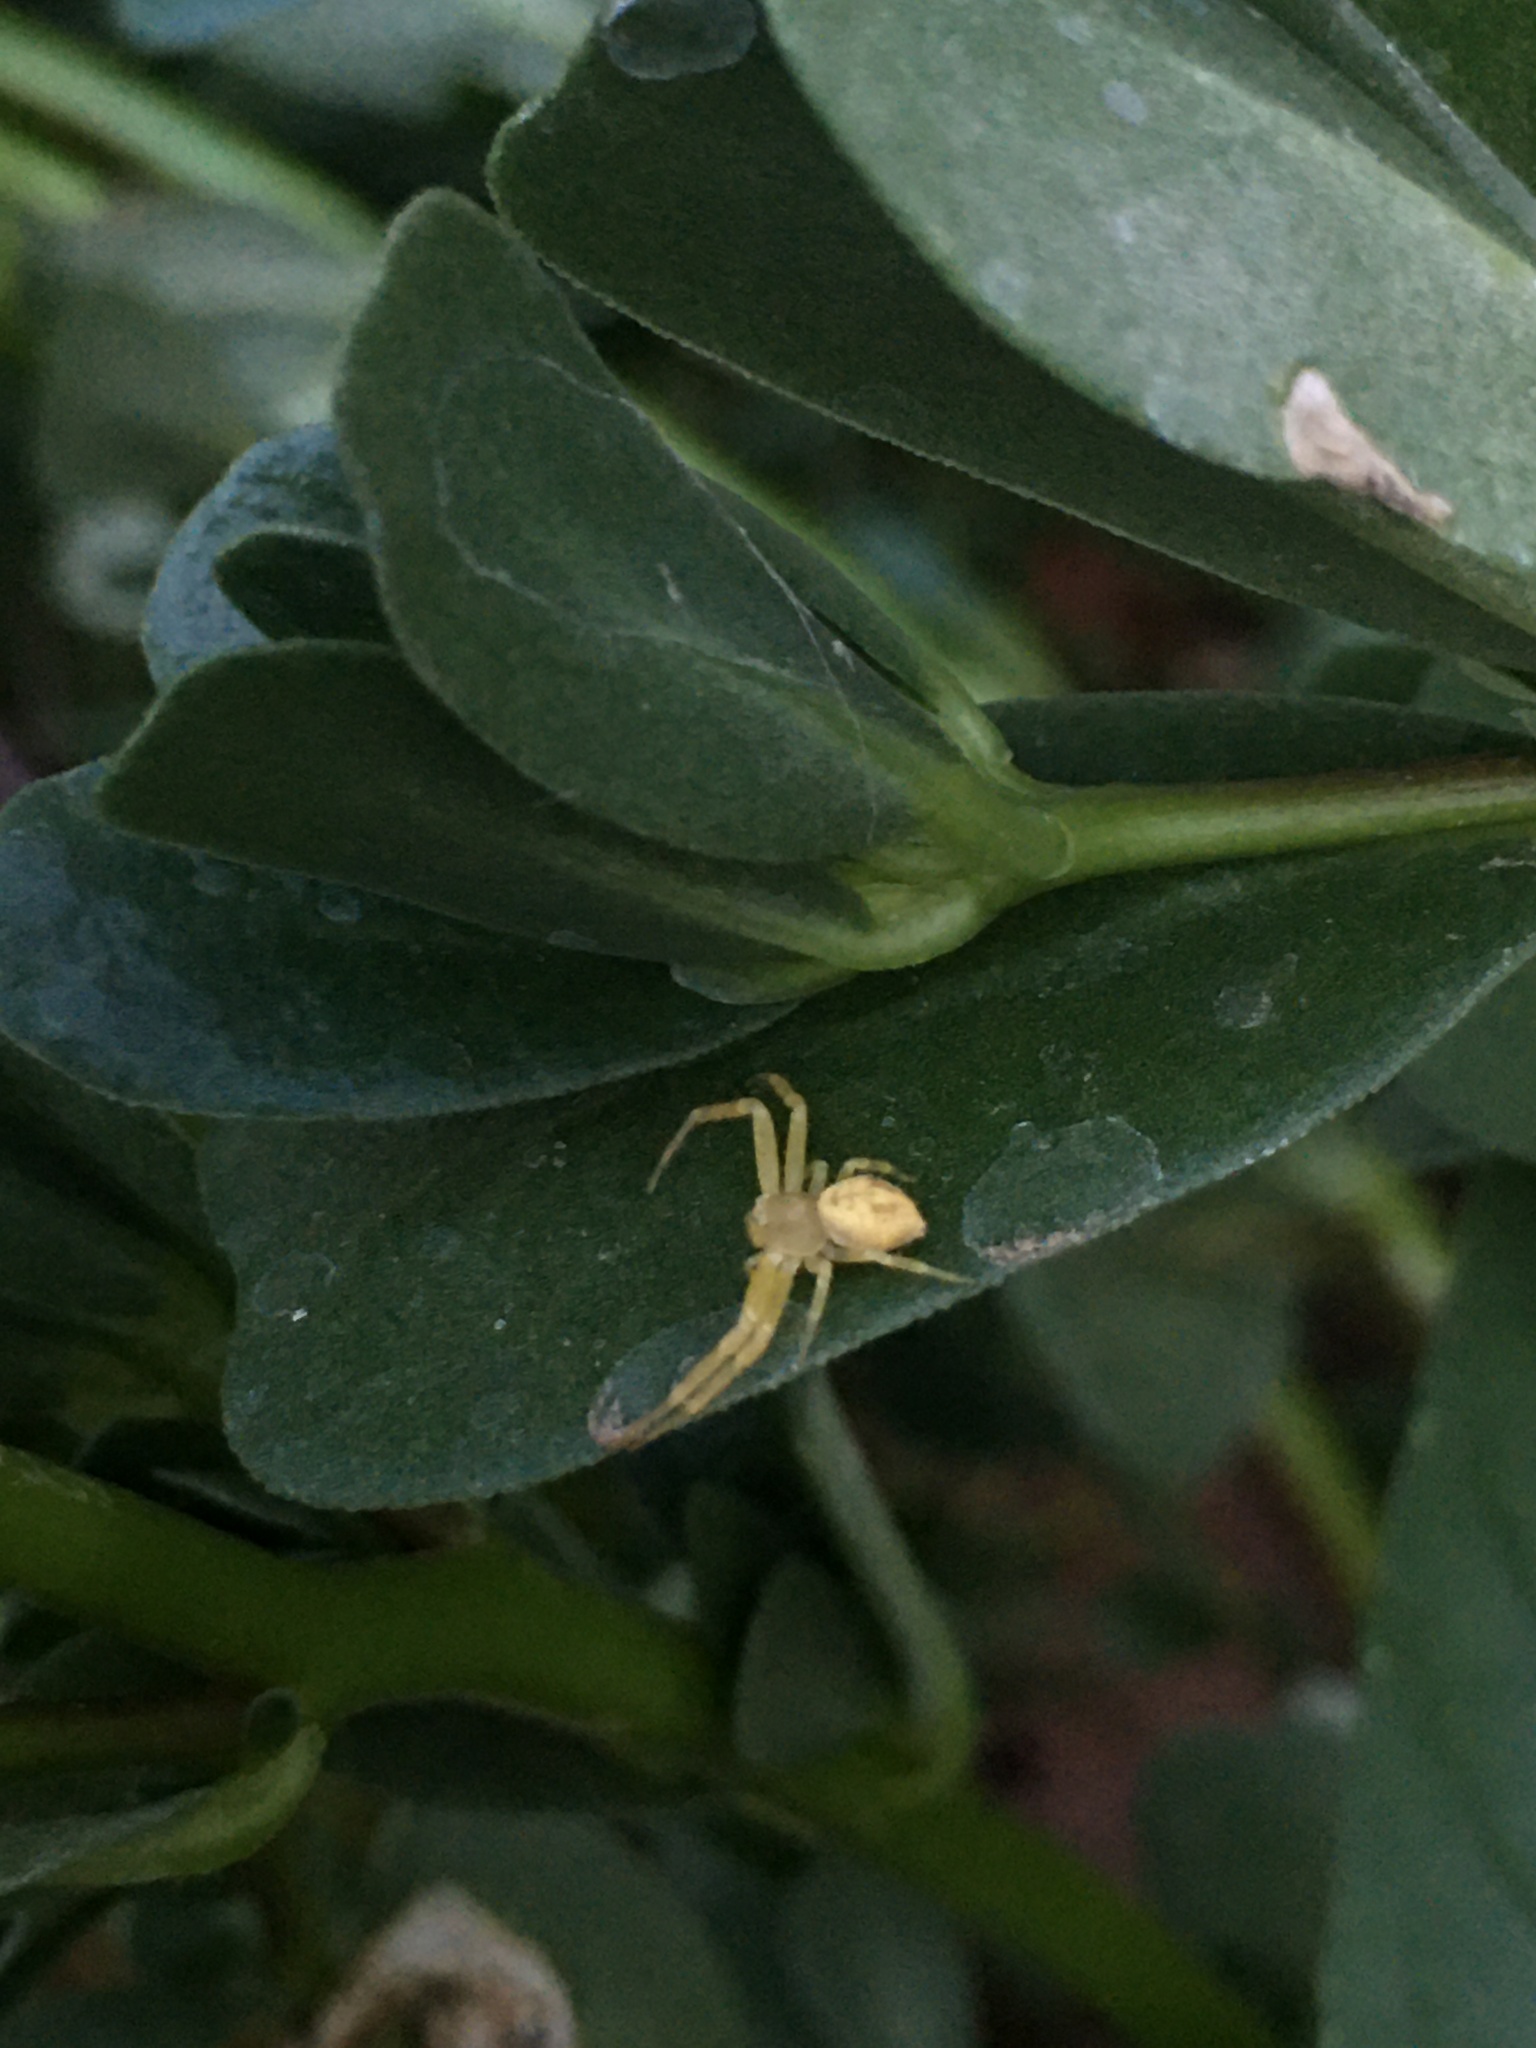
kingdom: Animalia
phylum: Arthropoda
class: Arachnida
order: Araneae
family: Thomisidae
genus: Misumenops
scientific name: Misumenops
